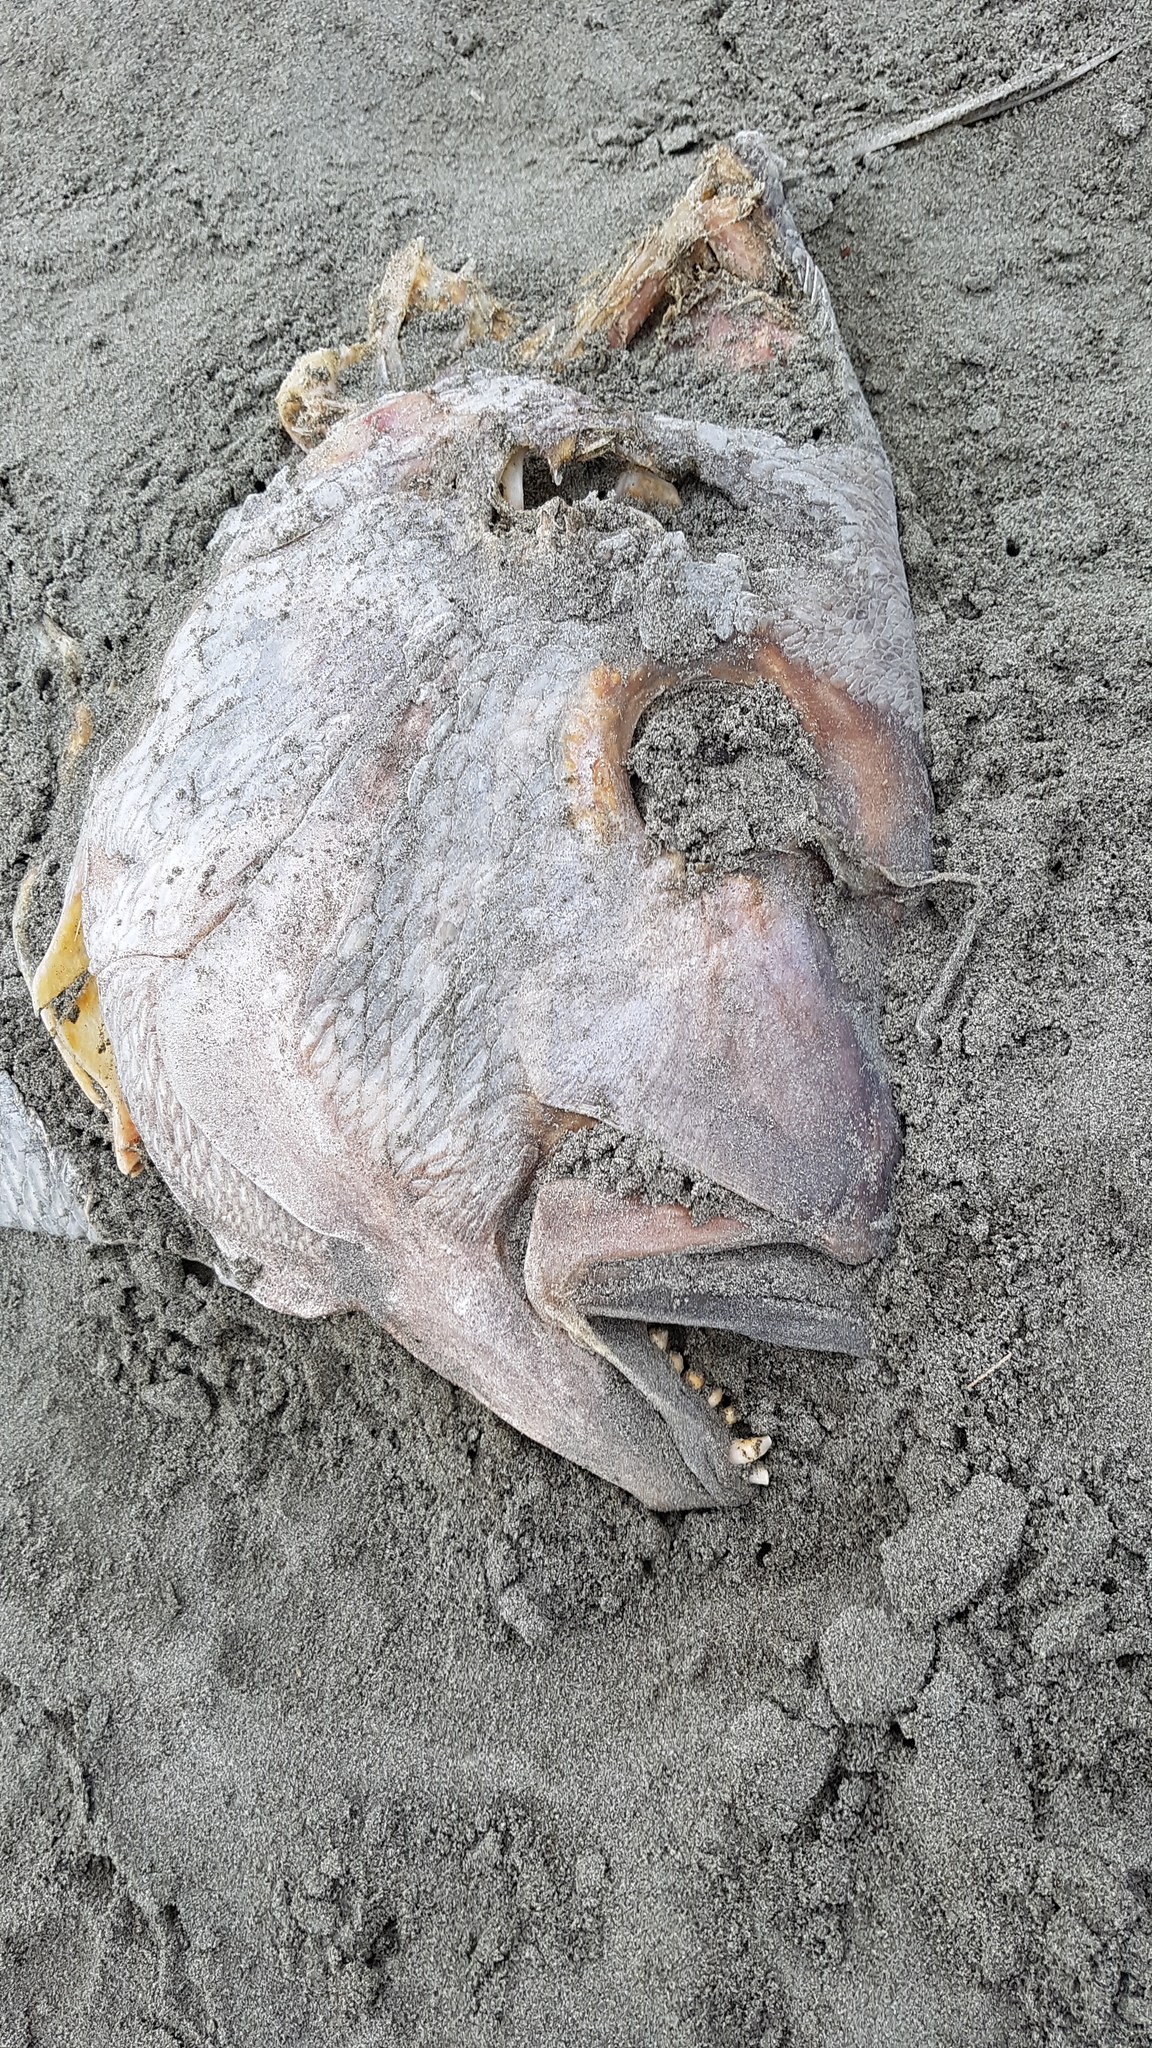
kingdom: Animalia
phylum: Chordata
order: Perciformes
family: Sparidae
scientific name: Sparidae
